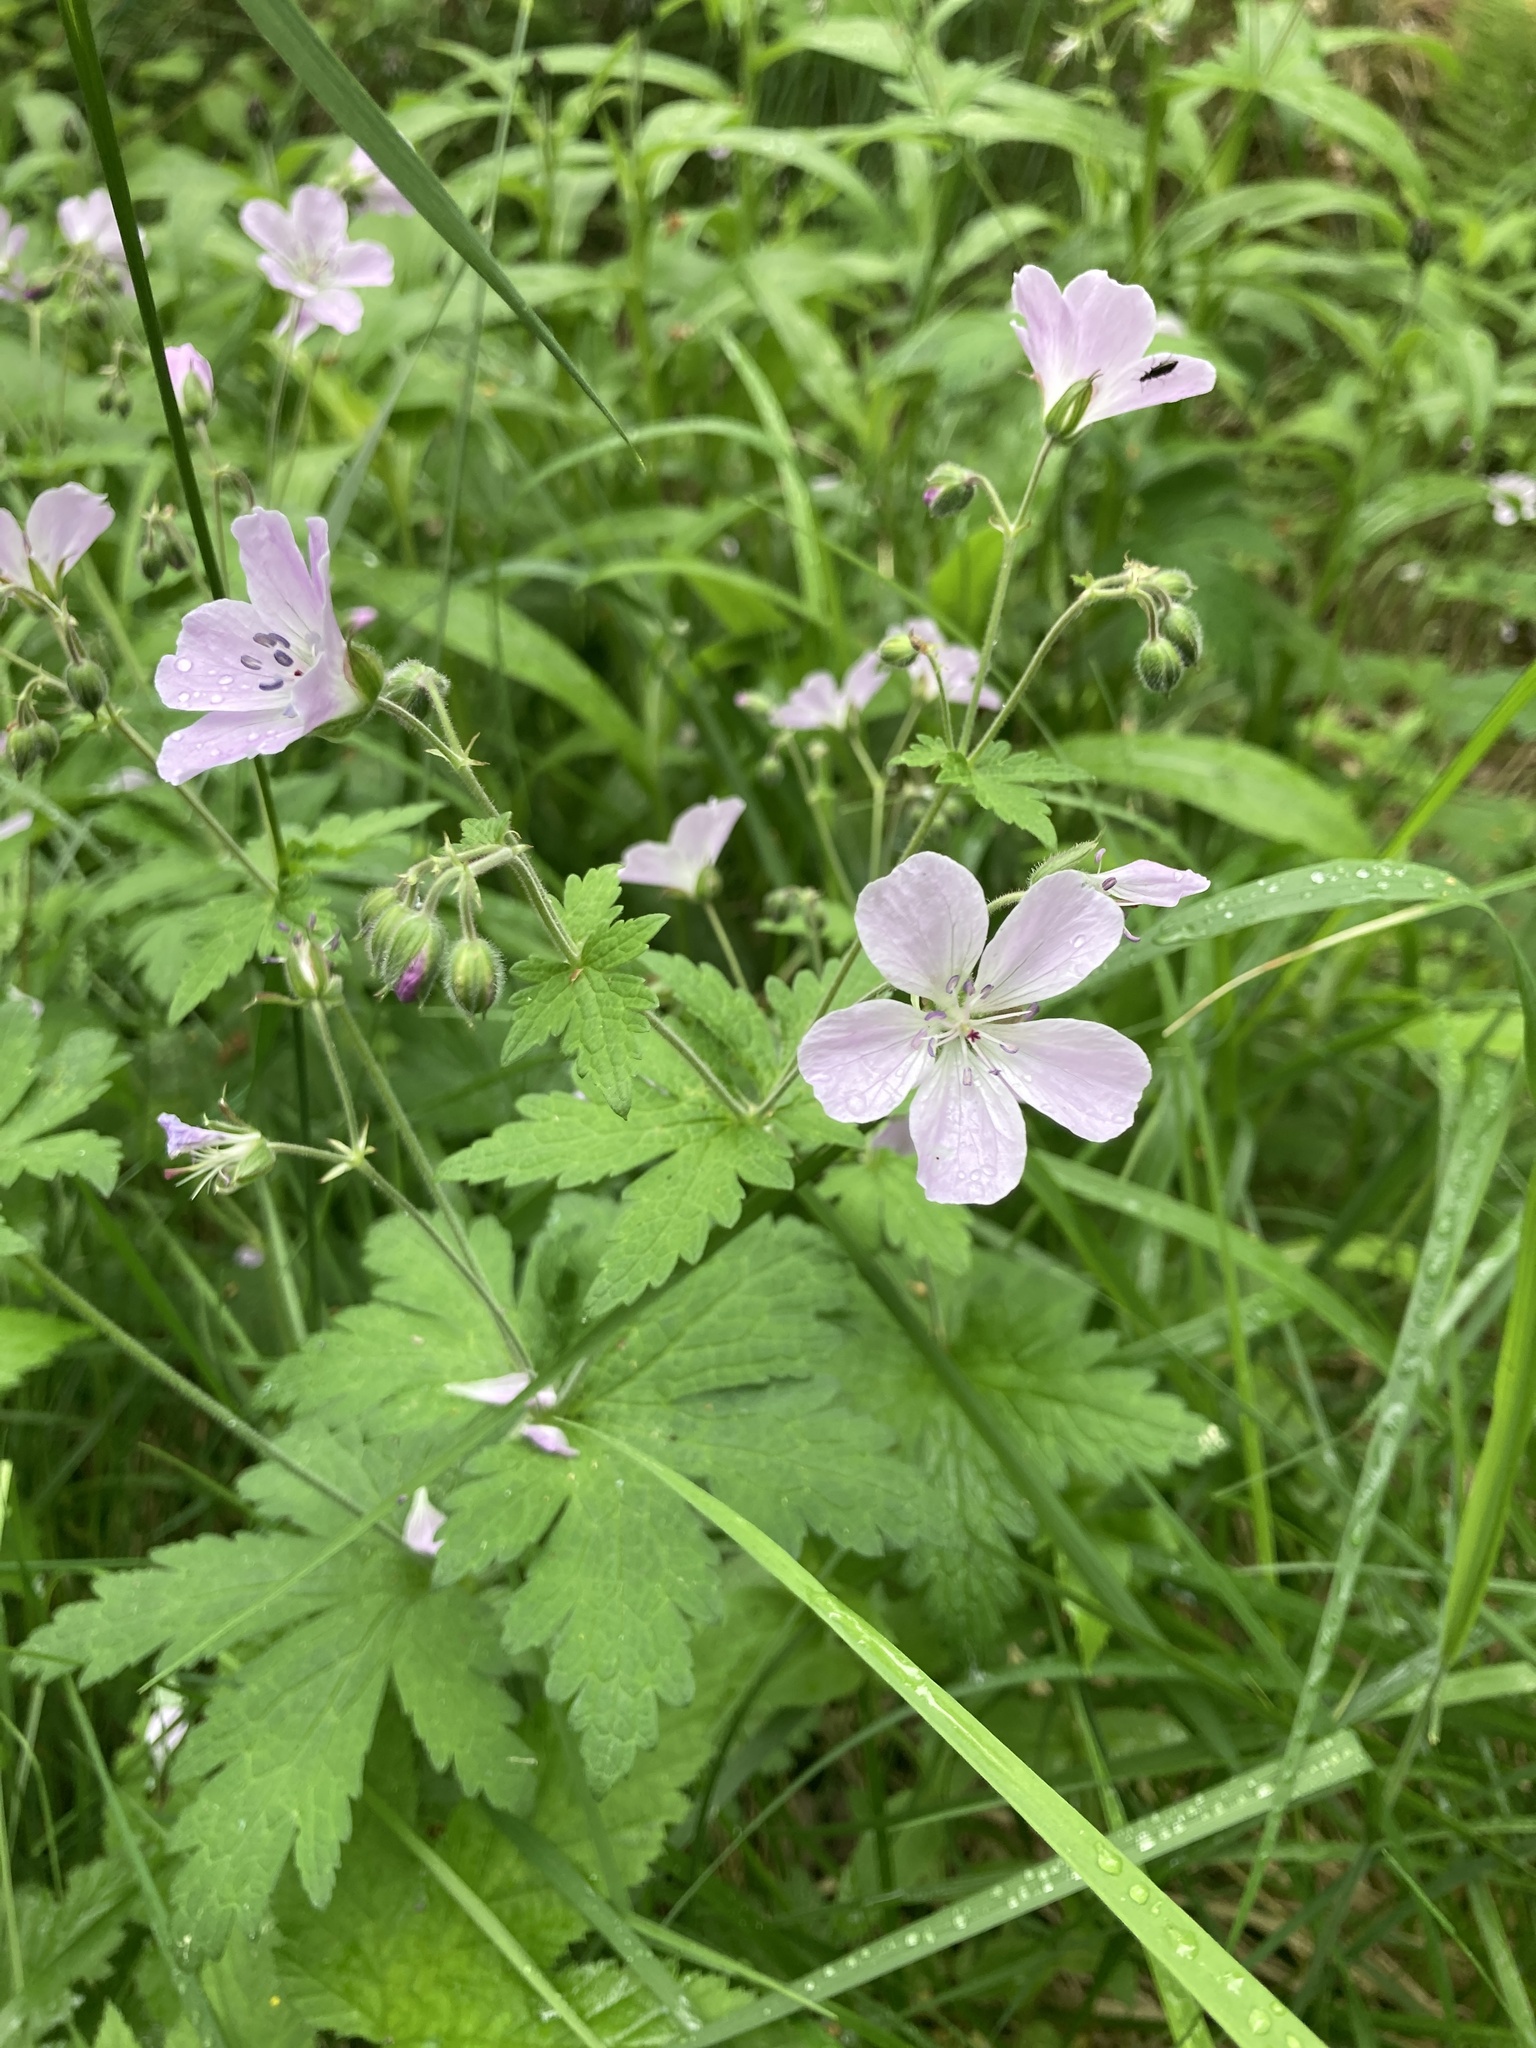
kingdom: Plantae
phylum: Tracheophyta
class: Magnoliopsida
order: Geraniales
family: Geraniaceae
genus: Geranium
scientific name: Geranium sylvaticum
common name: Wood crane's-bill
